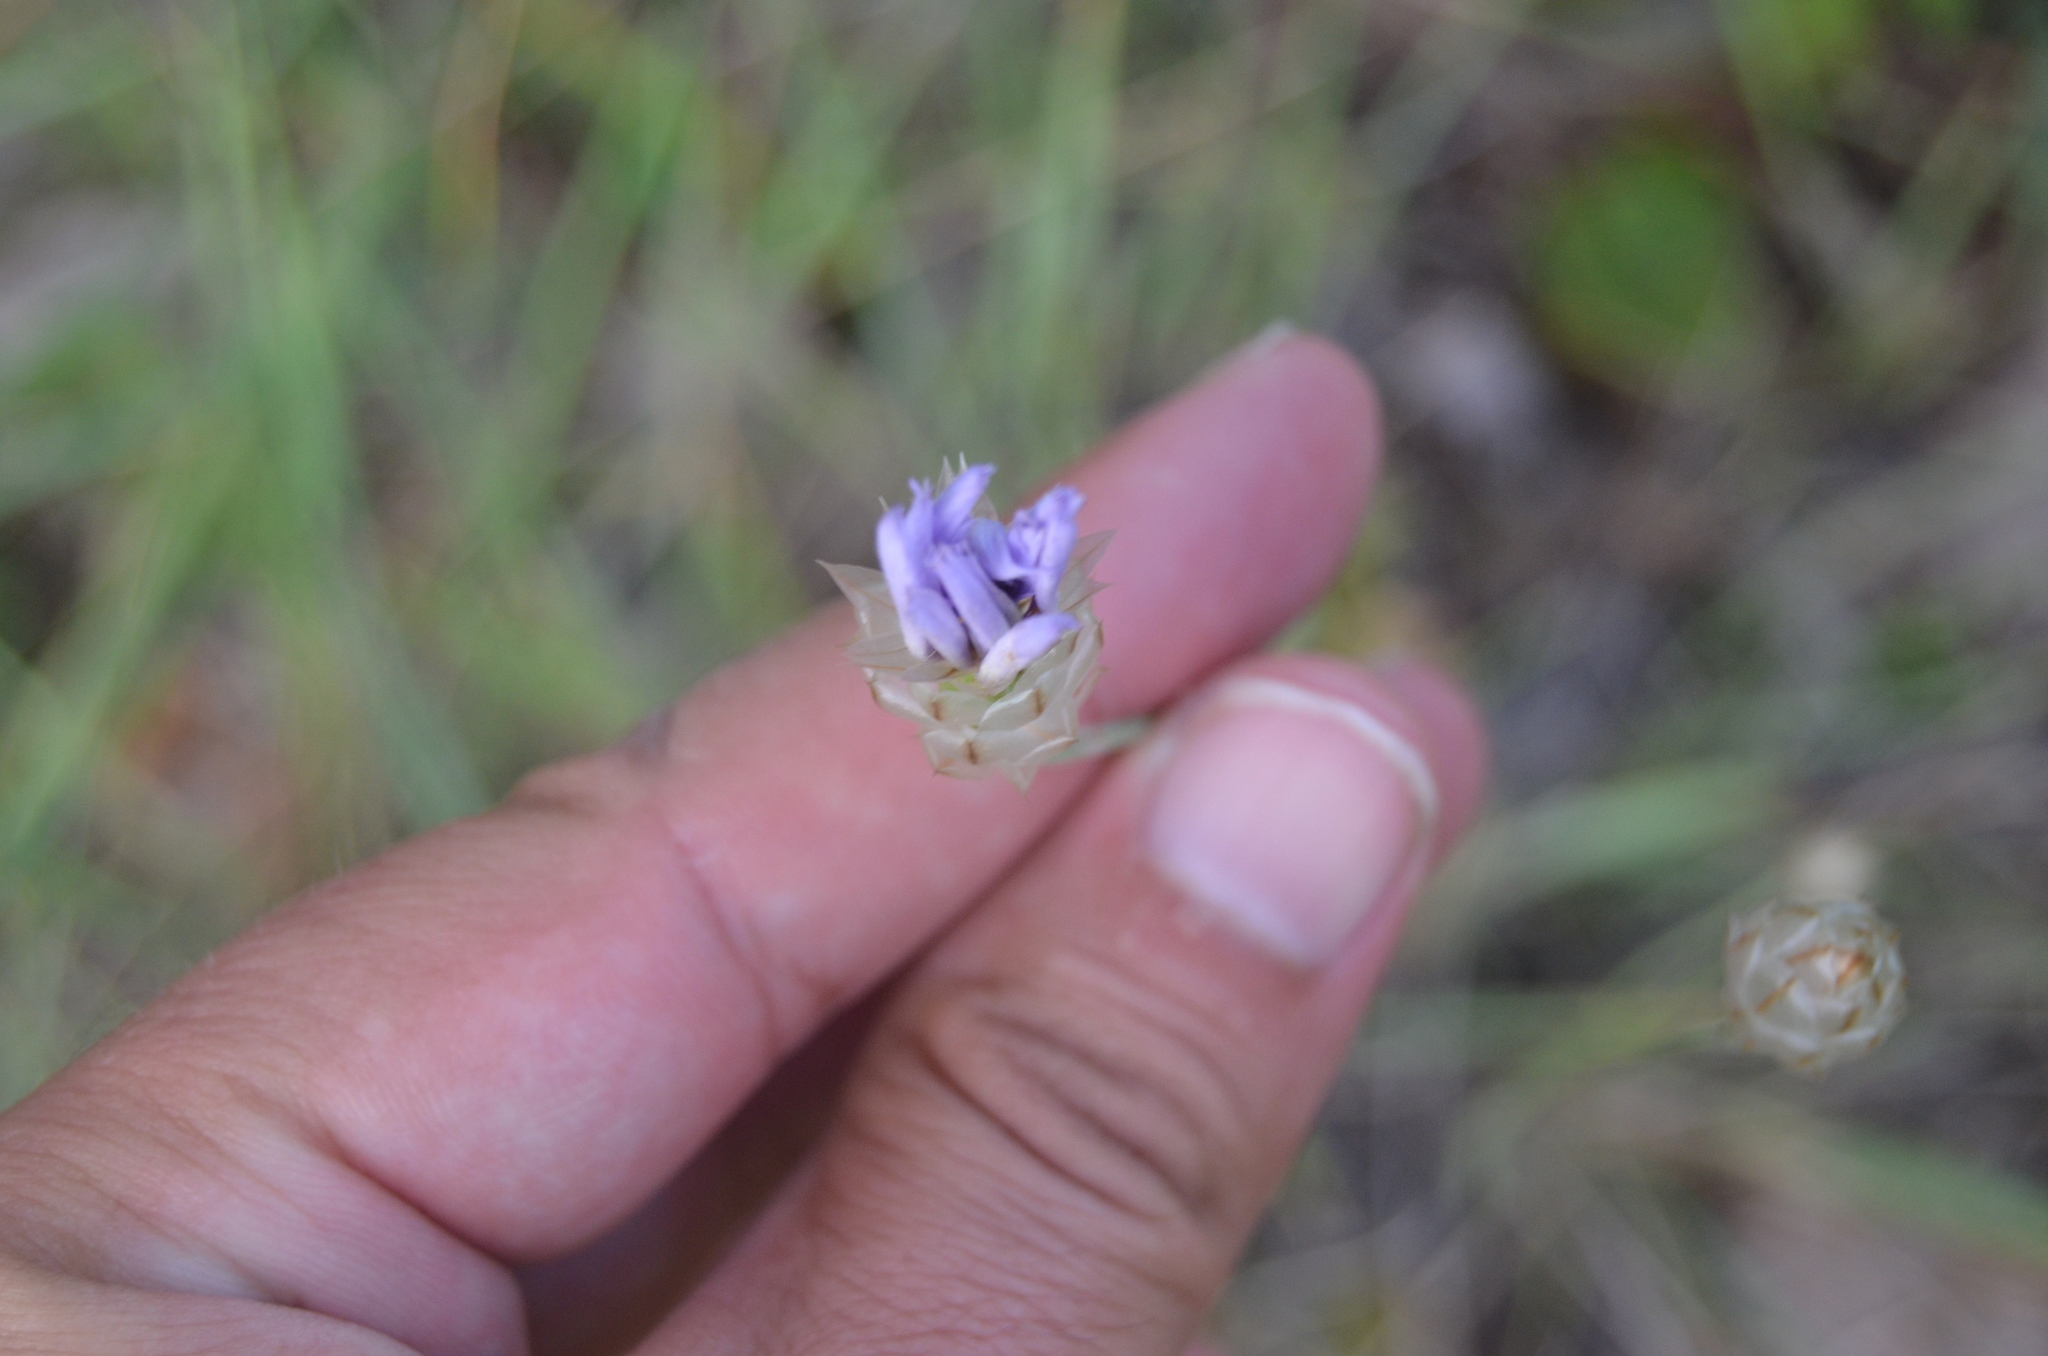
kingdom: Plantae
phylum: Tracheophyta
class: Magnoliopsida
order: Asterales
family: Asteraceae
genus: Catananche
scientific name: Catananche caerulea
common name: Blue cupidone
